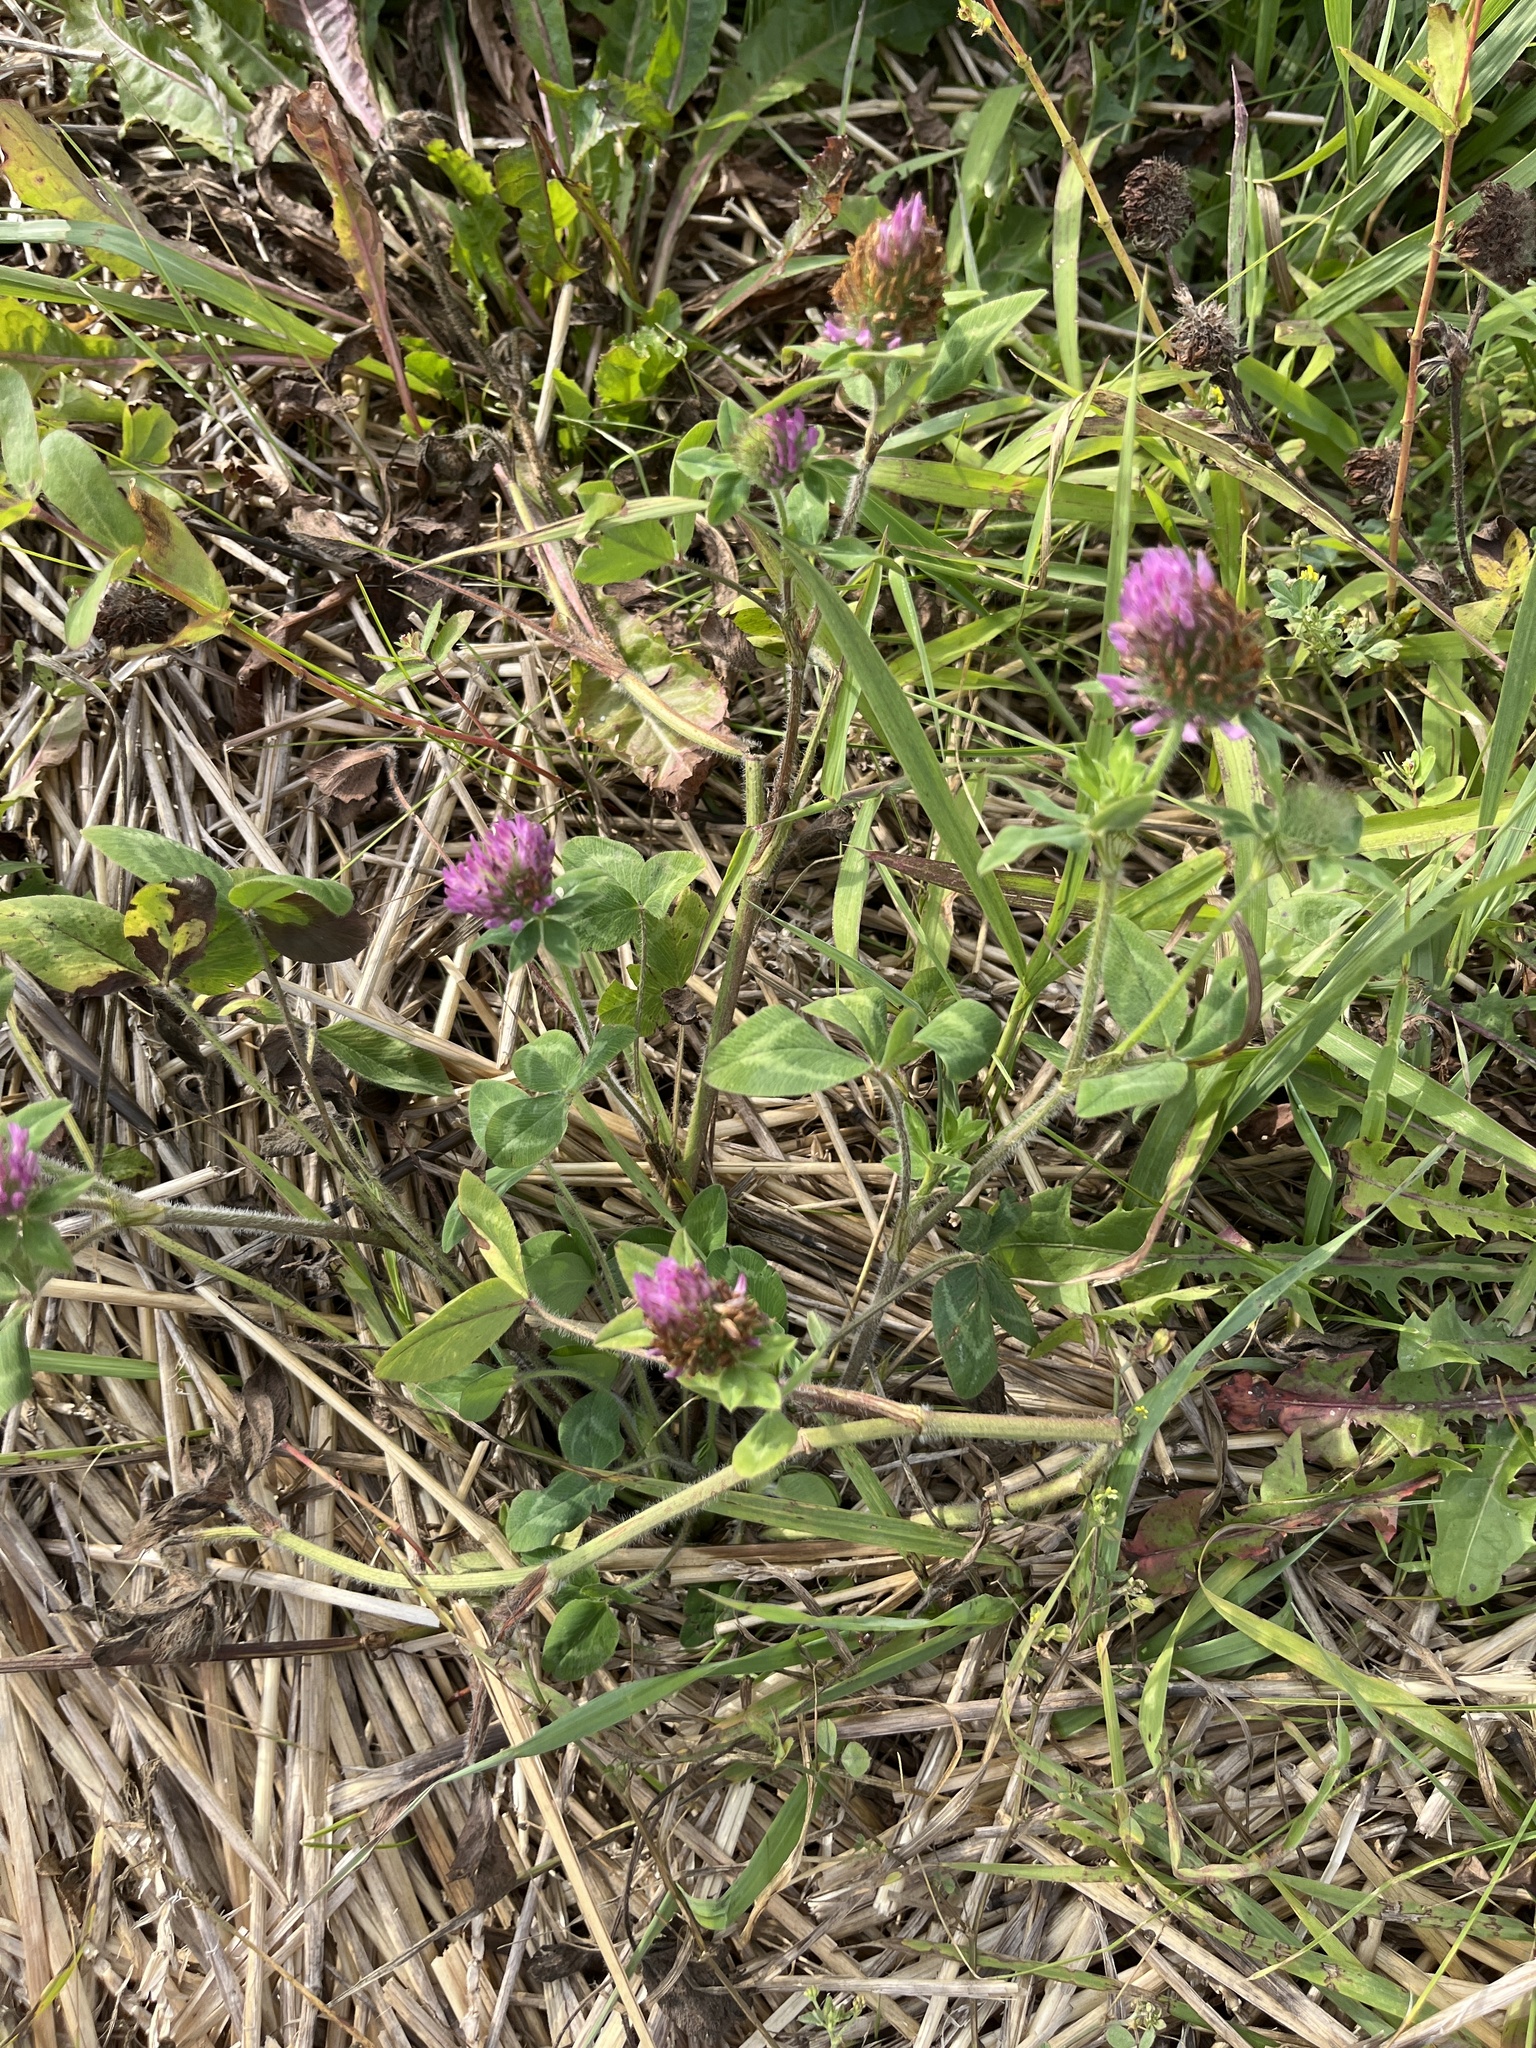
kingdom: Plantae
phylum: Tracheophyta
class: Magnoliopsida
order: Fabales
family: Fabaceae
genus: Trifolium
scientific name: Trifolium pratense
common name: Red clover
